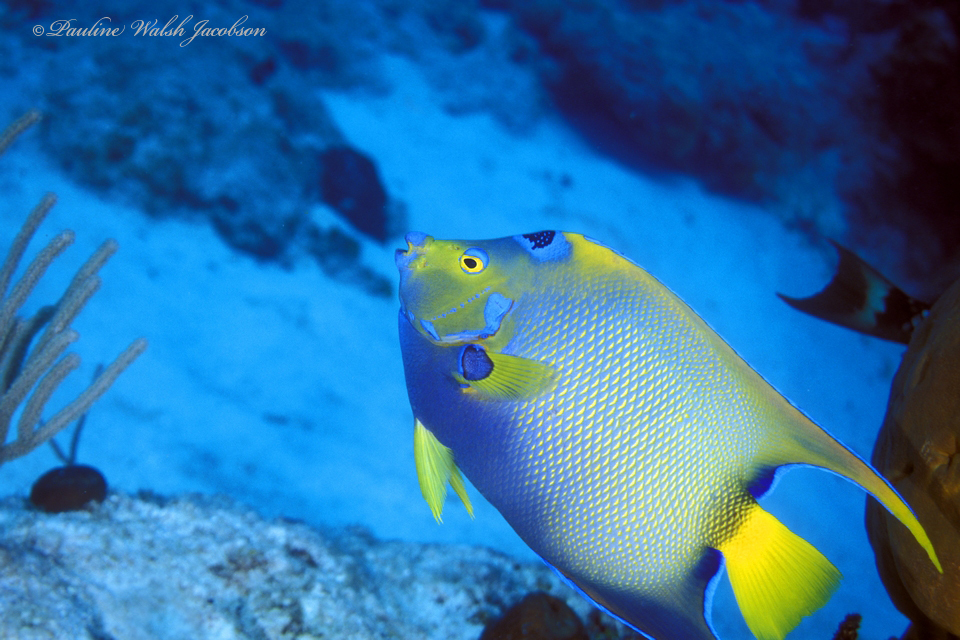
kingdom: Animalia
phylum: Chordata
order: Perciformes
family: Pomacanthidae
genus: Holacanthus
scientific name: Holacanthus ciliaris
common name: Queen angelfish
